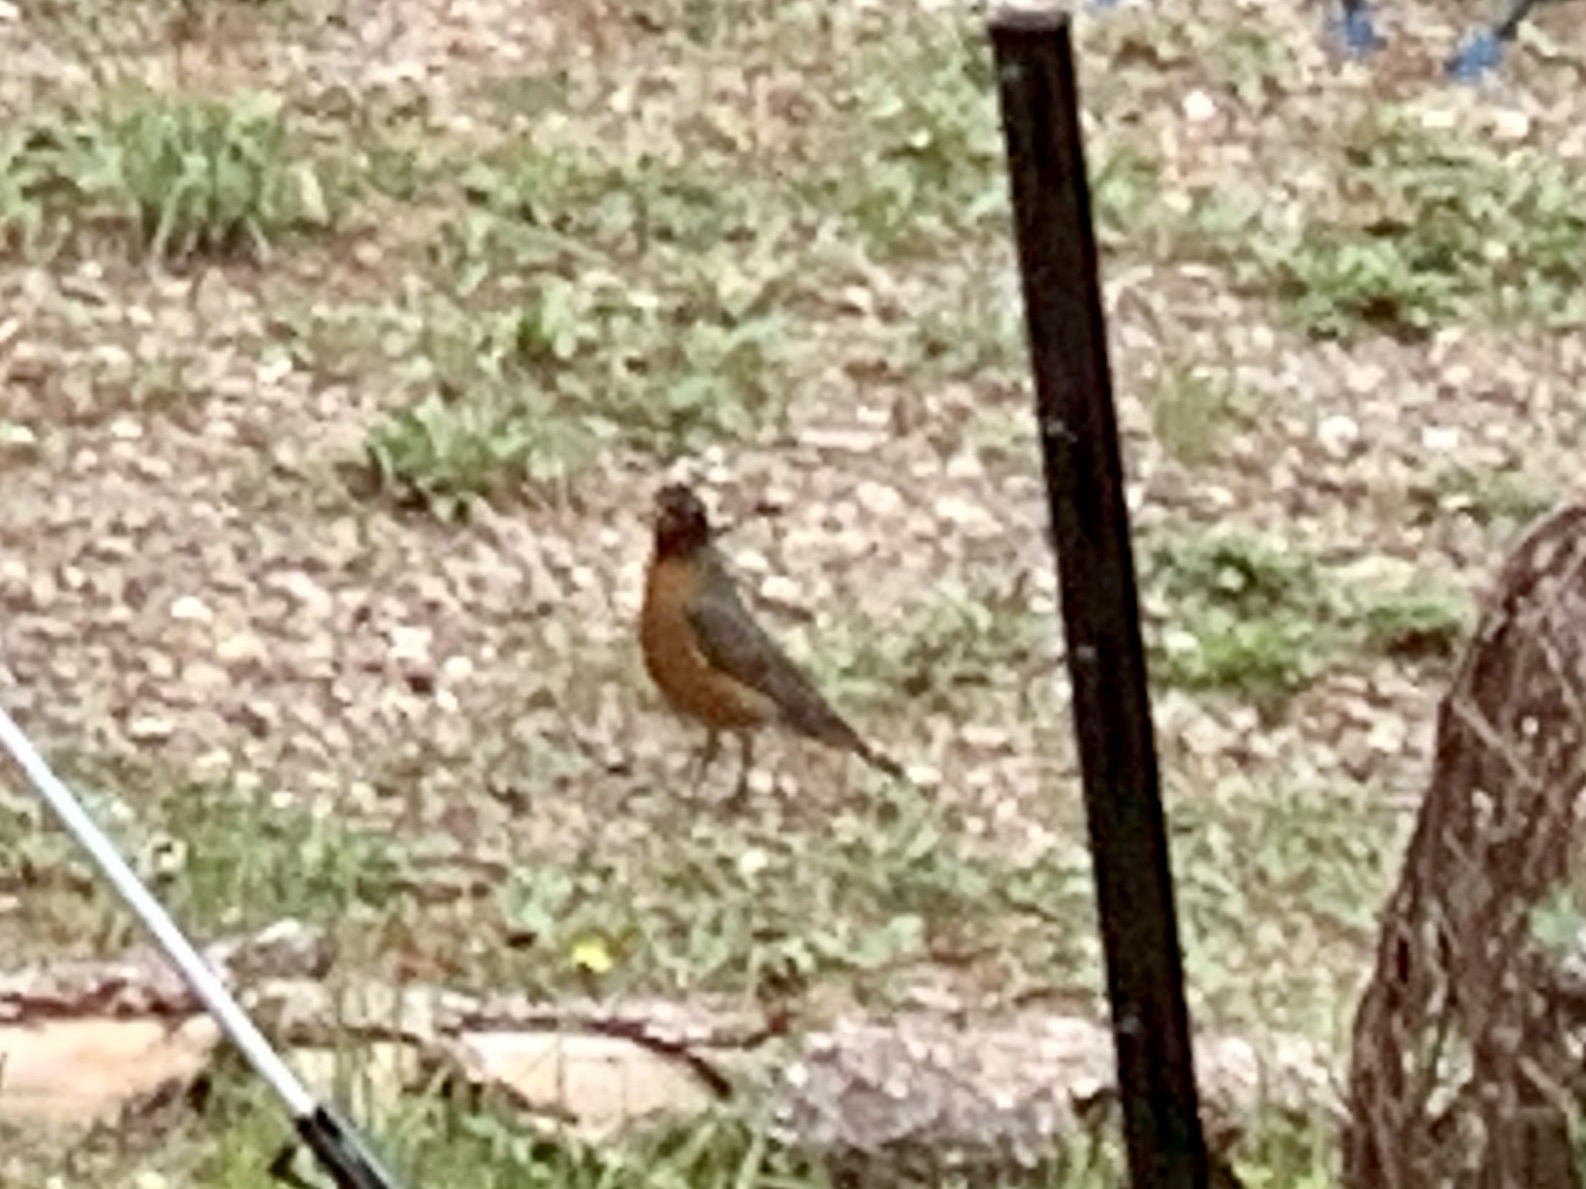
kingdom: Animalia
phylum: Chordata
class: Aves
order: Passeriformes
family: Turdidae
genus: Turdus
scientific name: Turdus migratorius
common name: American robin
